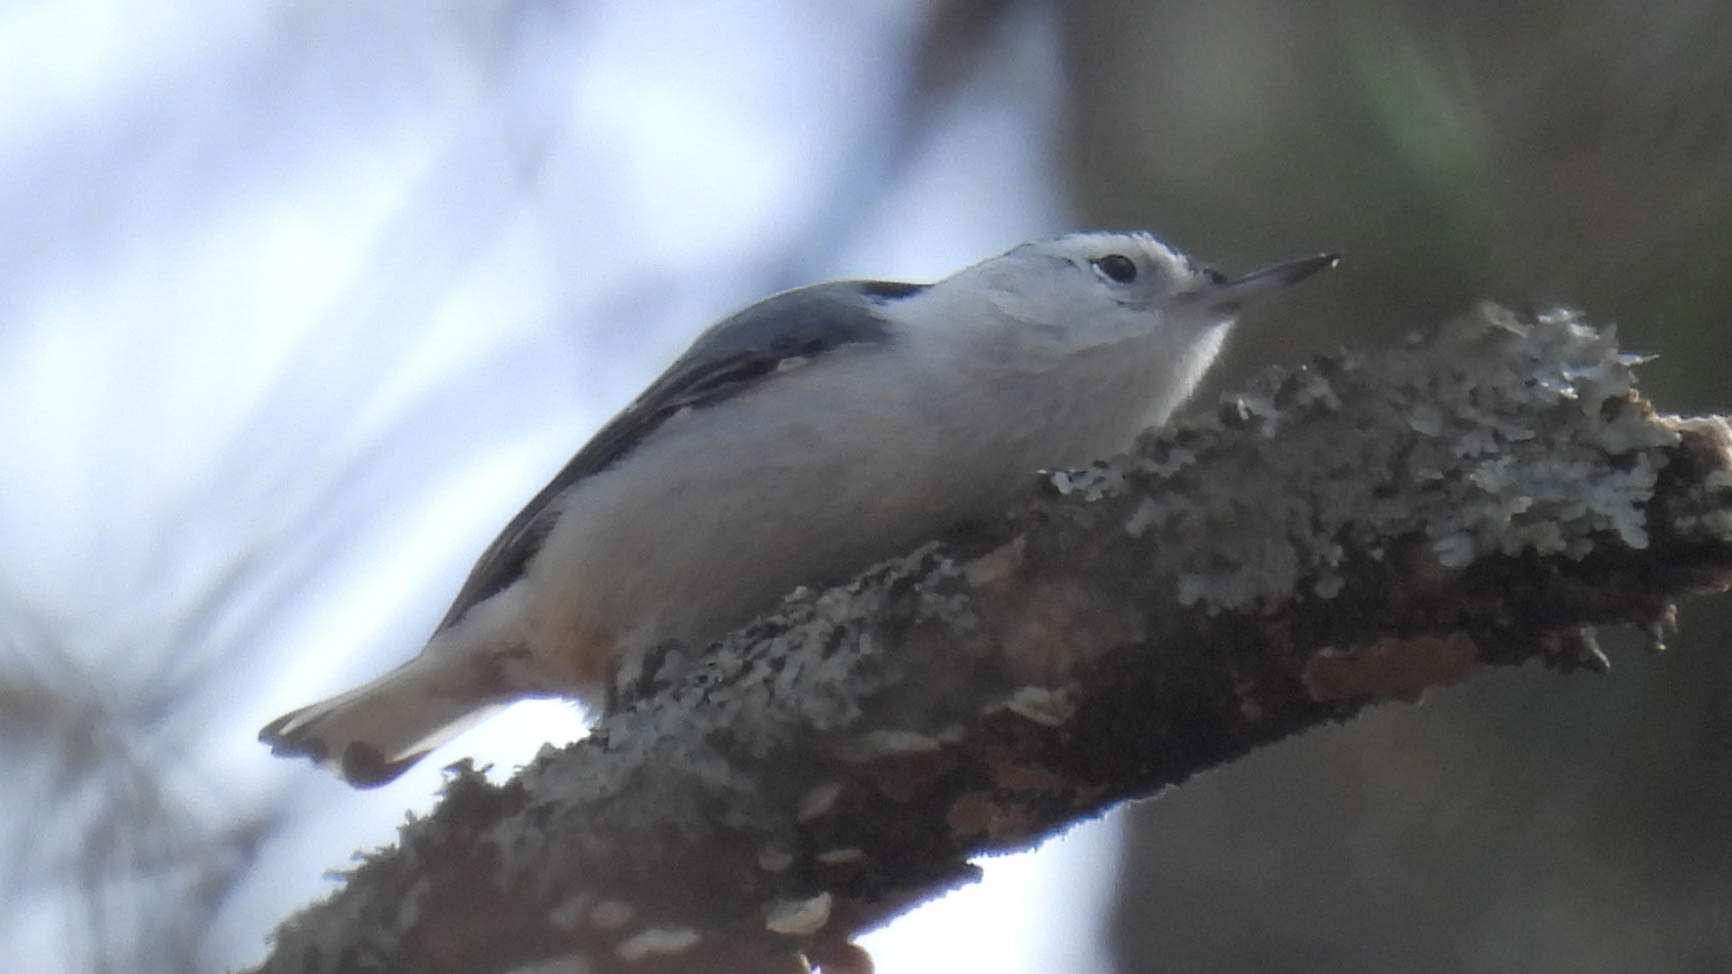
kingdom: Animalia
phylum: Chordata
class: Aves
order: Passeriformes
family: Sittidae
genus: Sitta
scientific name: Sitta carolinensis
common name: White-breasted nuthatch
